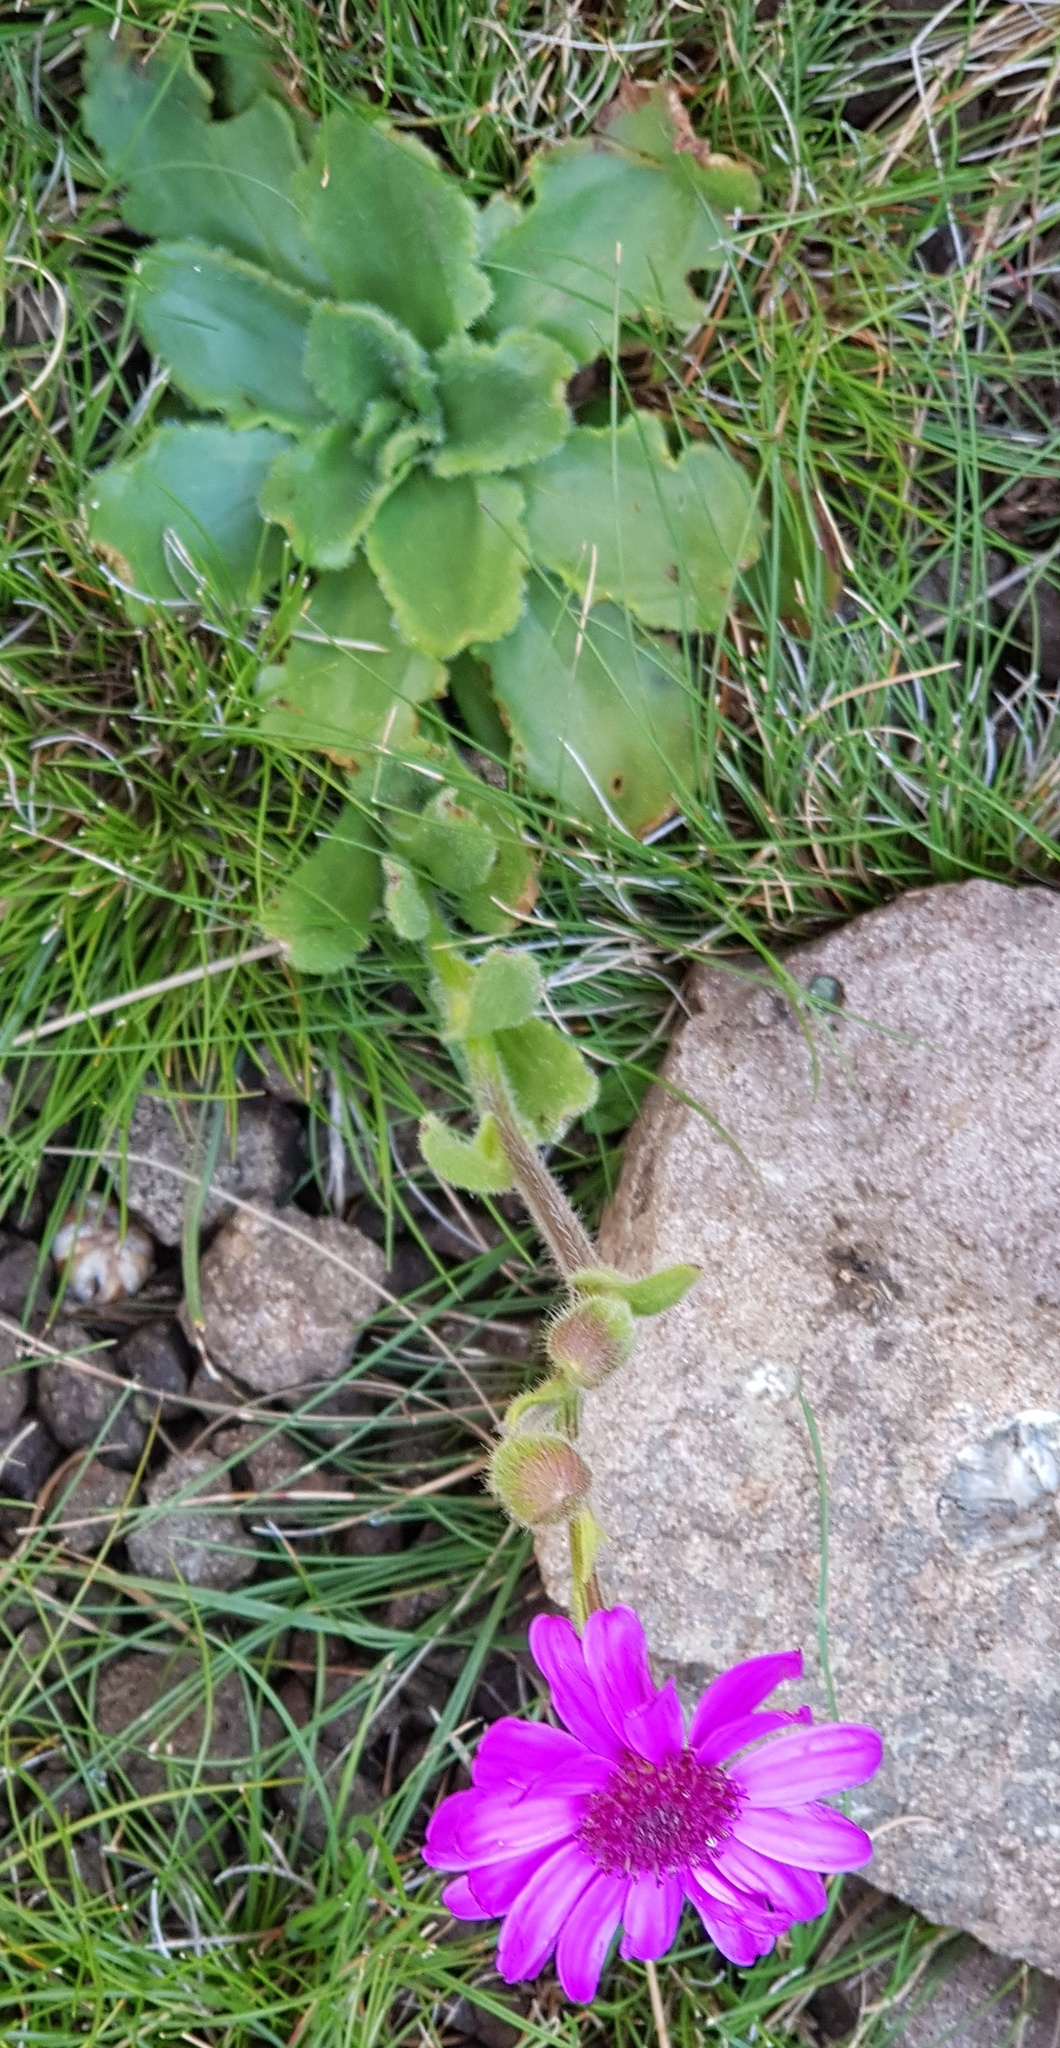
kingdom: Plantae
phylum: Tracheophyta
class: Magnoliopsida
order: Asterales
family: Asteraceae
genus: Senecio
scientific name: Senecio speciosus
